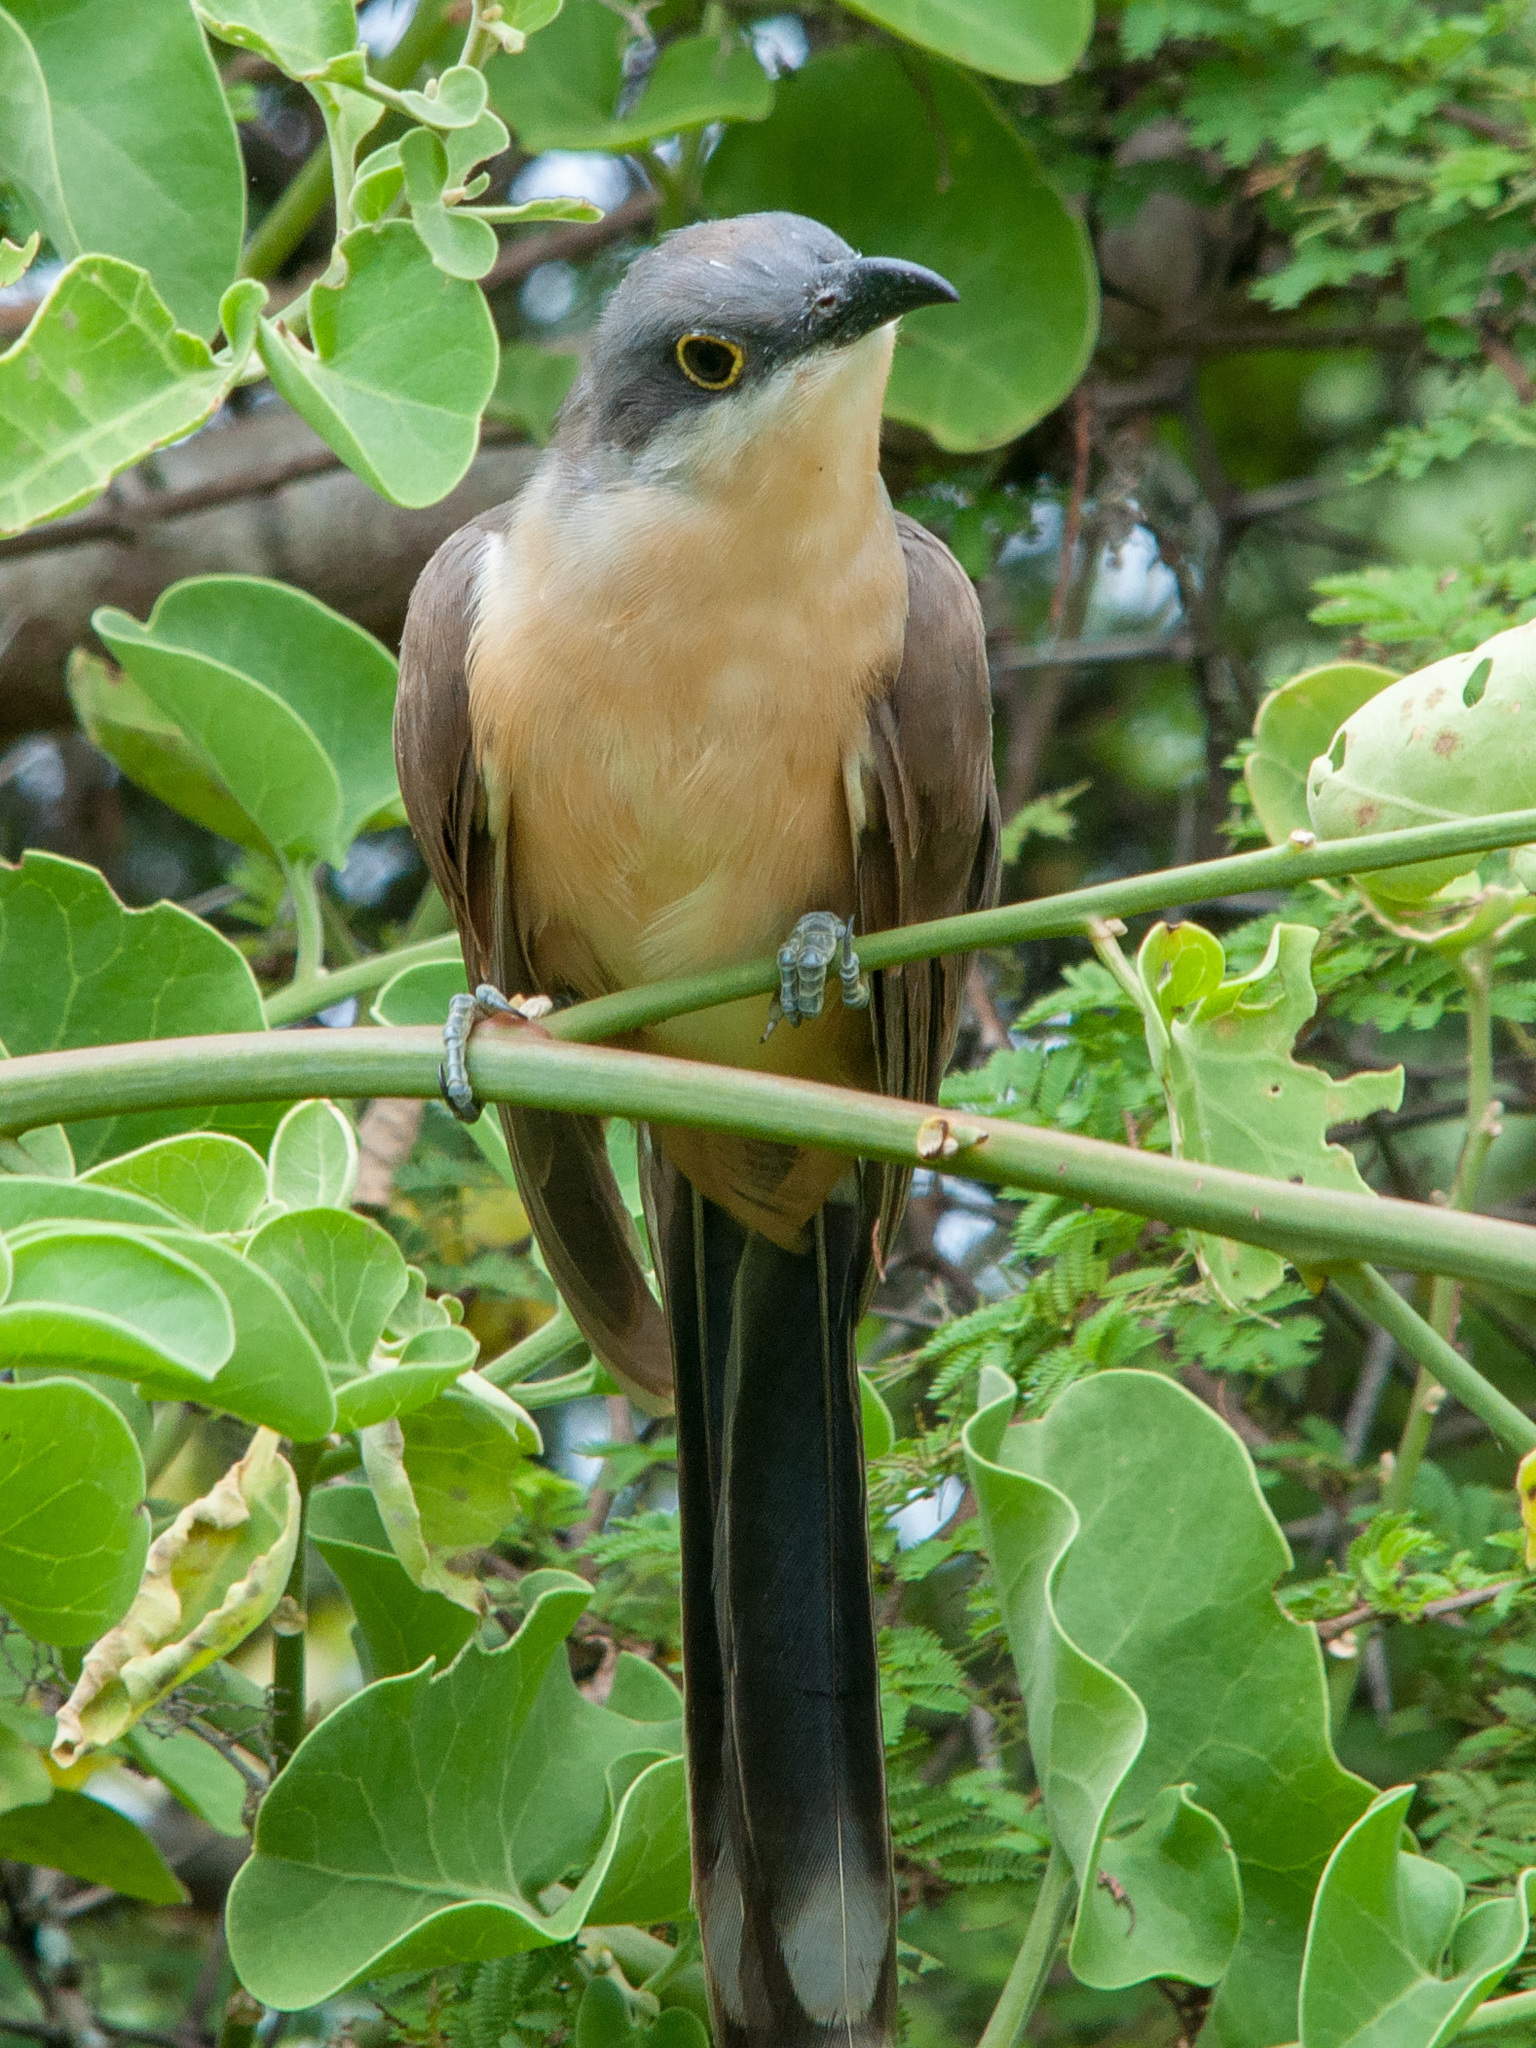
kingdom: Animalia
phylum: Chordata
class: Aves
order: Cuculiformes
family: Cuculidae
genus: Coccyzus
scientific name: Coccyzus melacoryphus
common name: Dark-billed cuckoo
